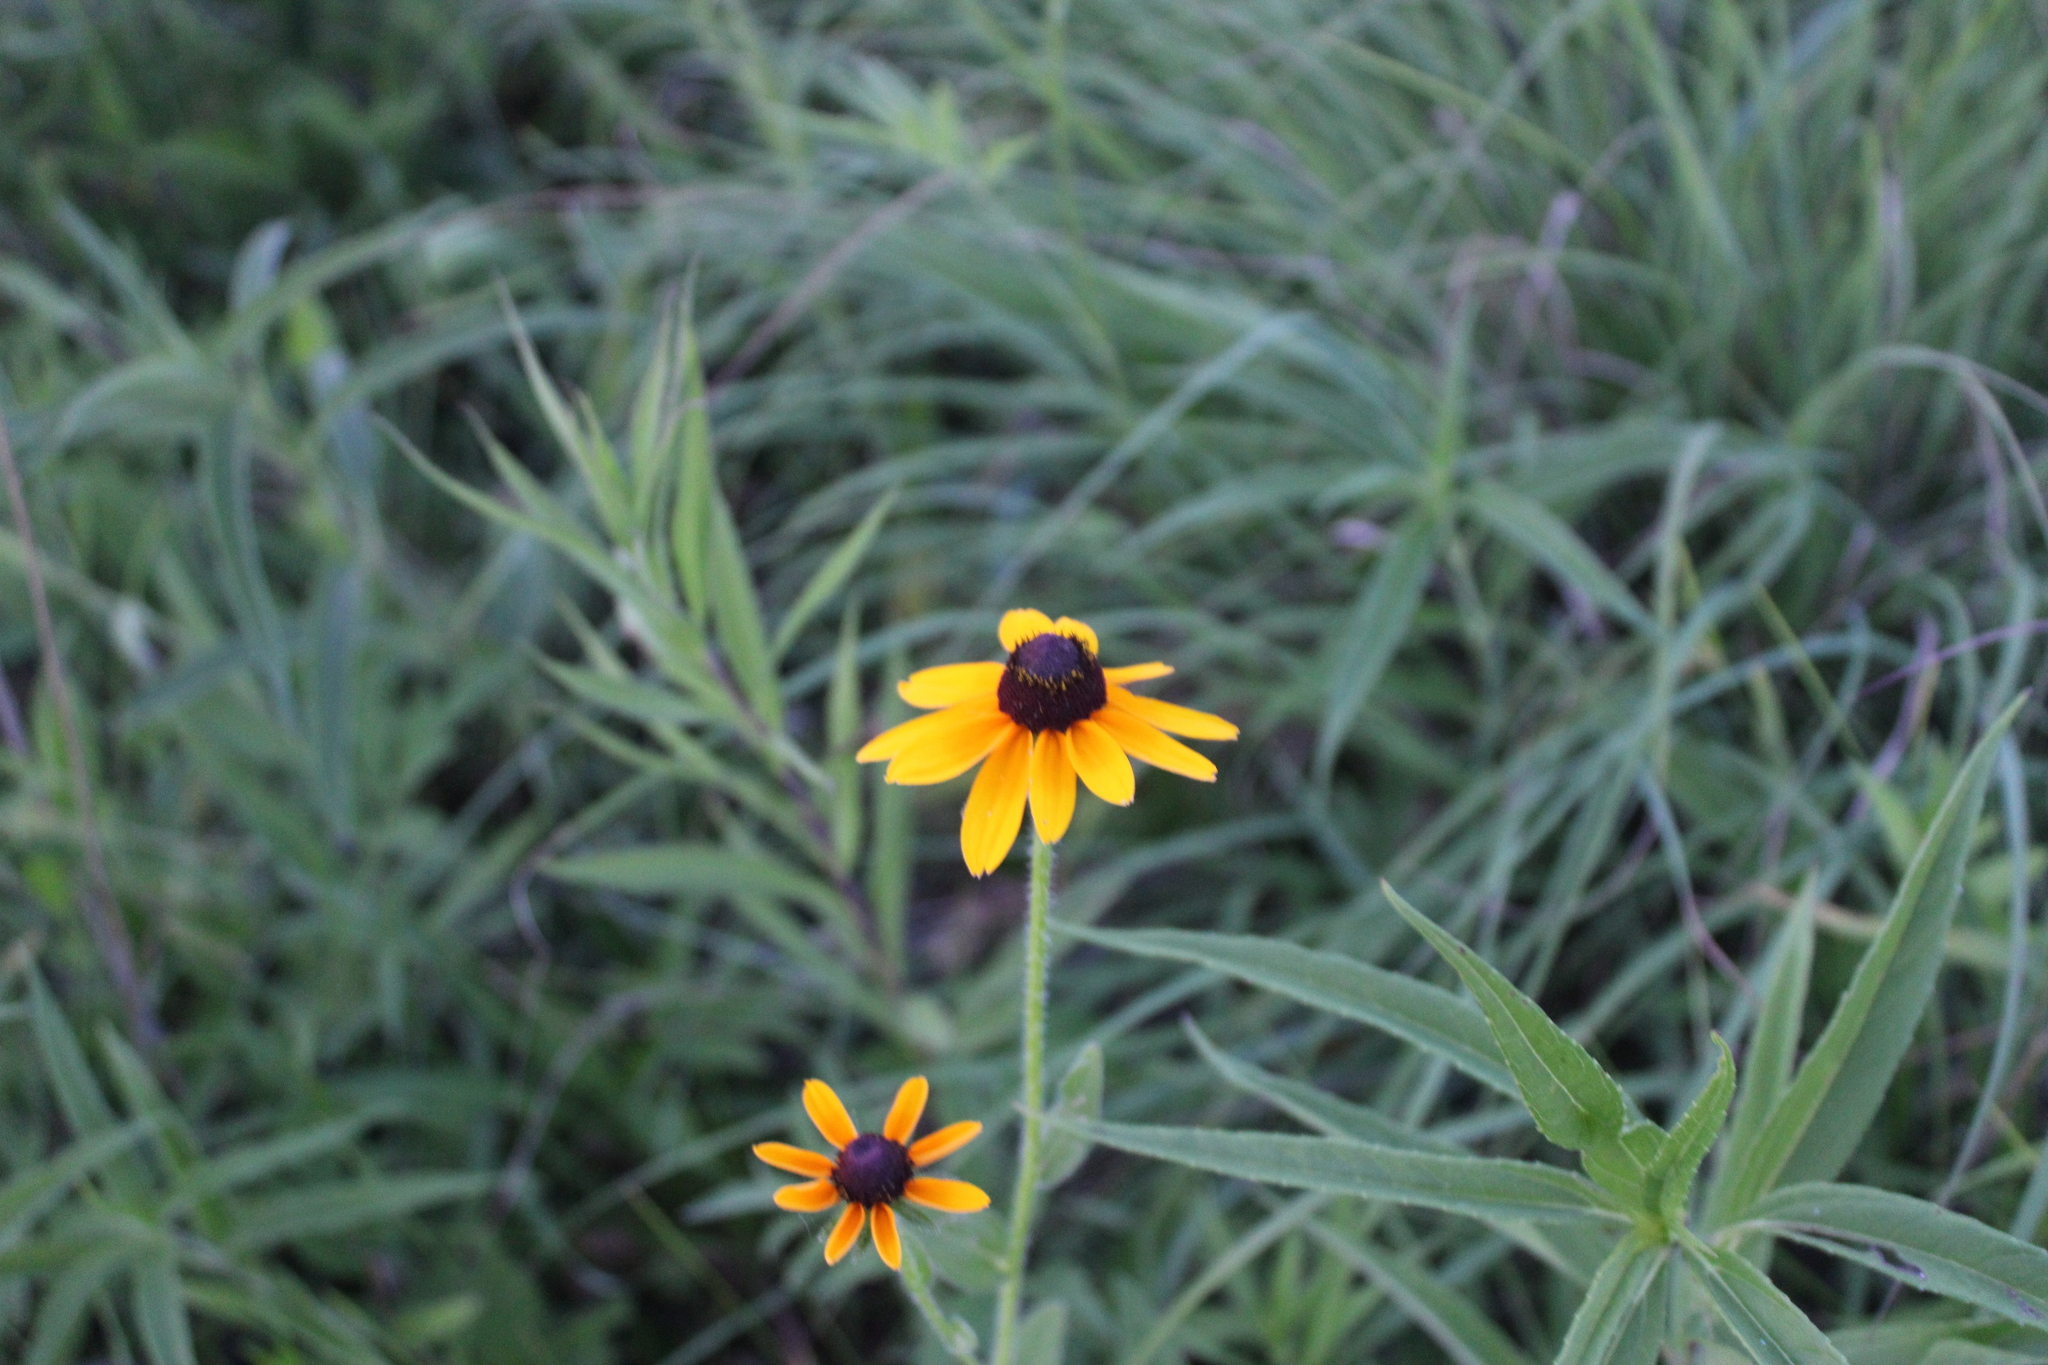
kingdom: Plantae
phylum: Tracheophyta
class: Magnoliopsida
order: Asterales
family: Asteraceae
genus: Rudbeckia
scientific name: Rudbeckia hirta
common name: Black-eyed-susan
